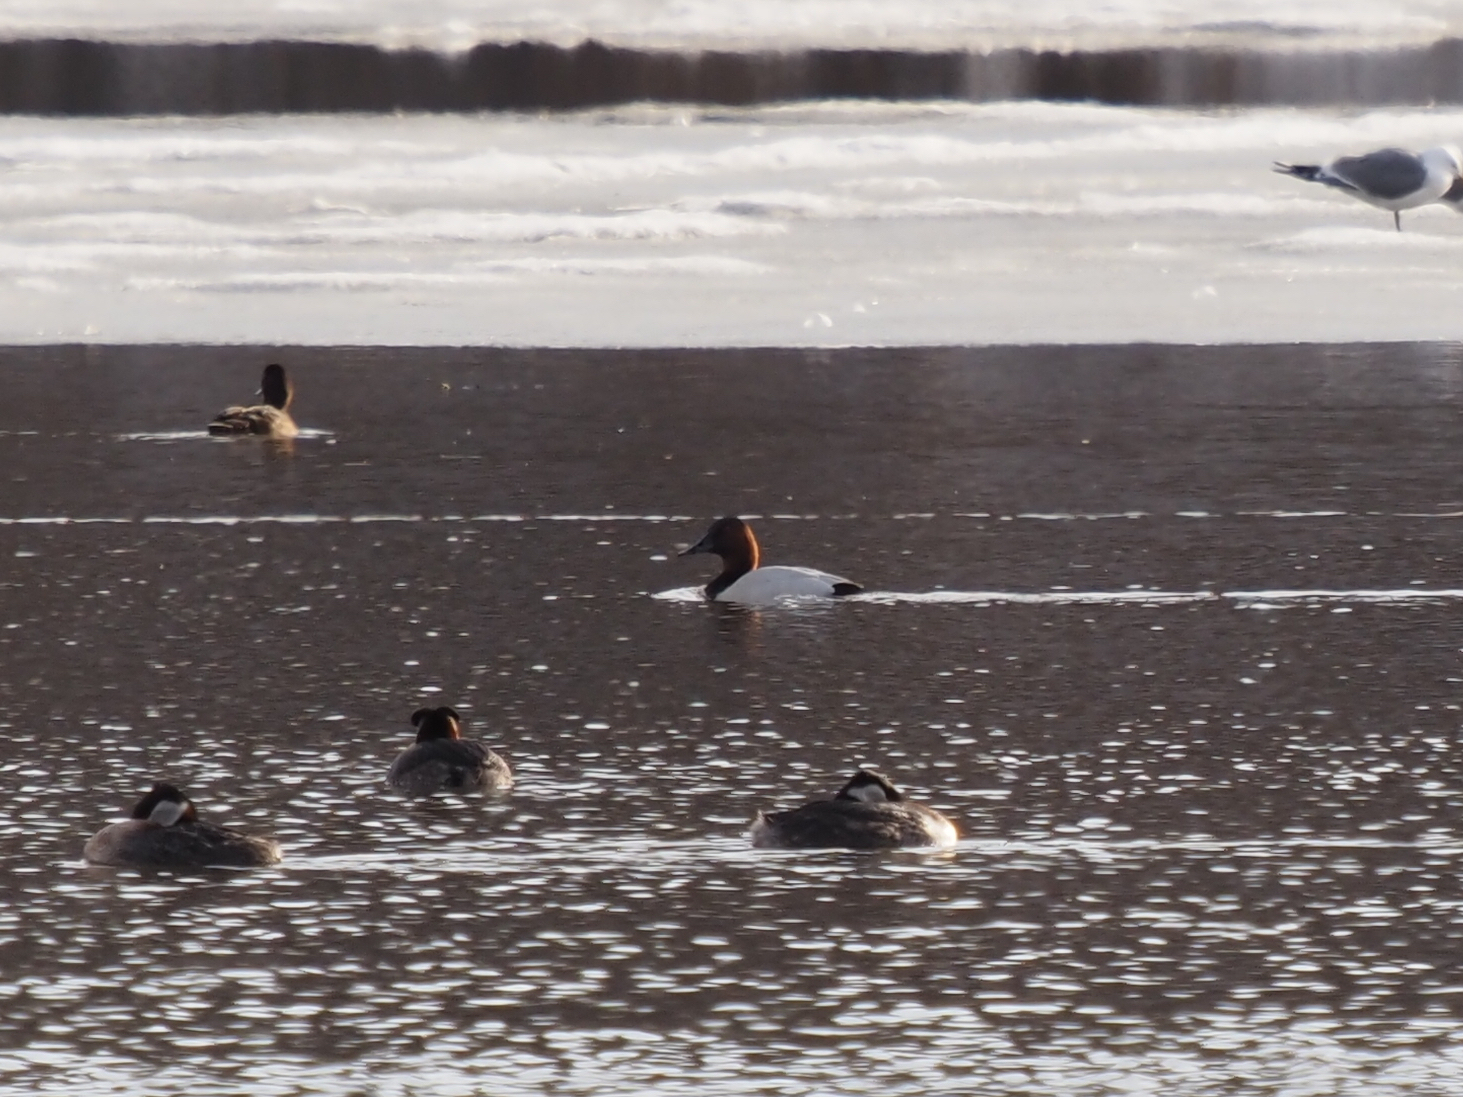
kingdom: Animalia
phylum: Chordata
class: Aves
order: Anseriformes
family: Anatidae
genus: Aythya
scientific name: Aythya valisineria
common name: Canvasback
